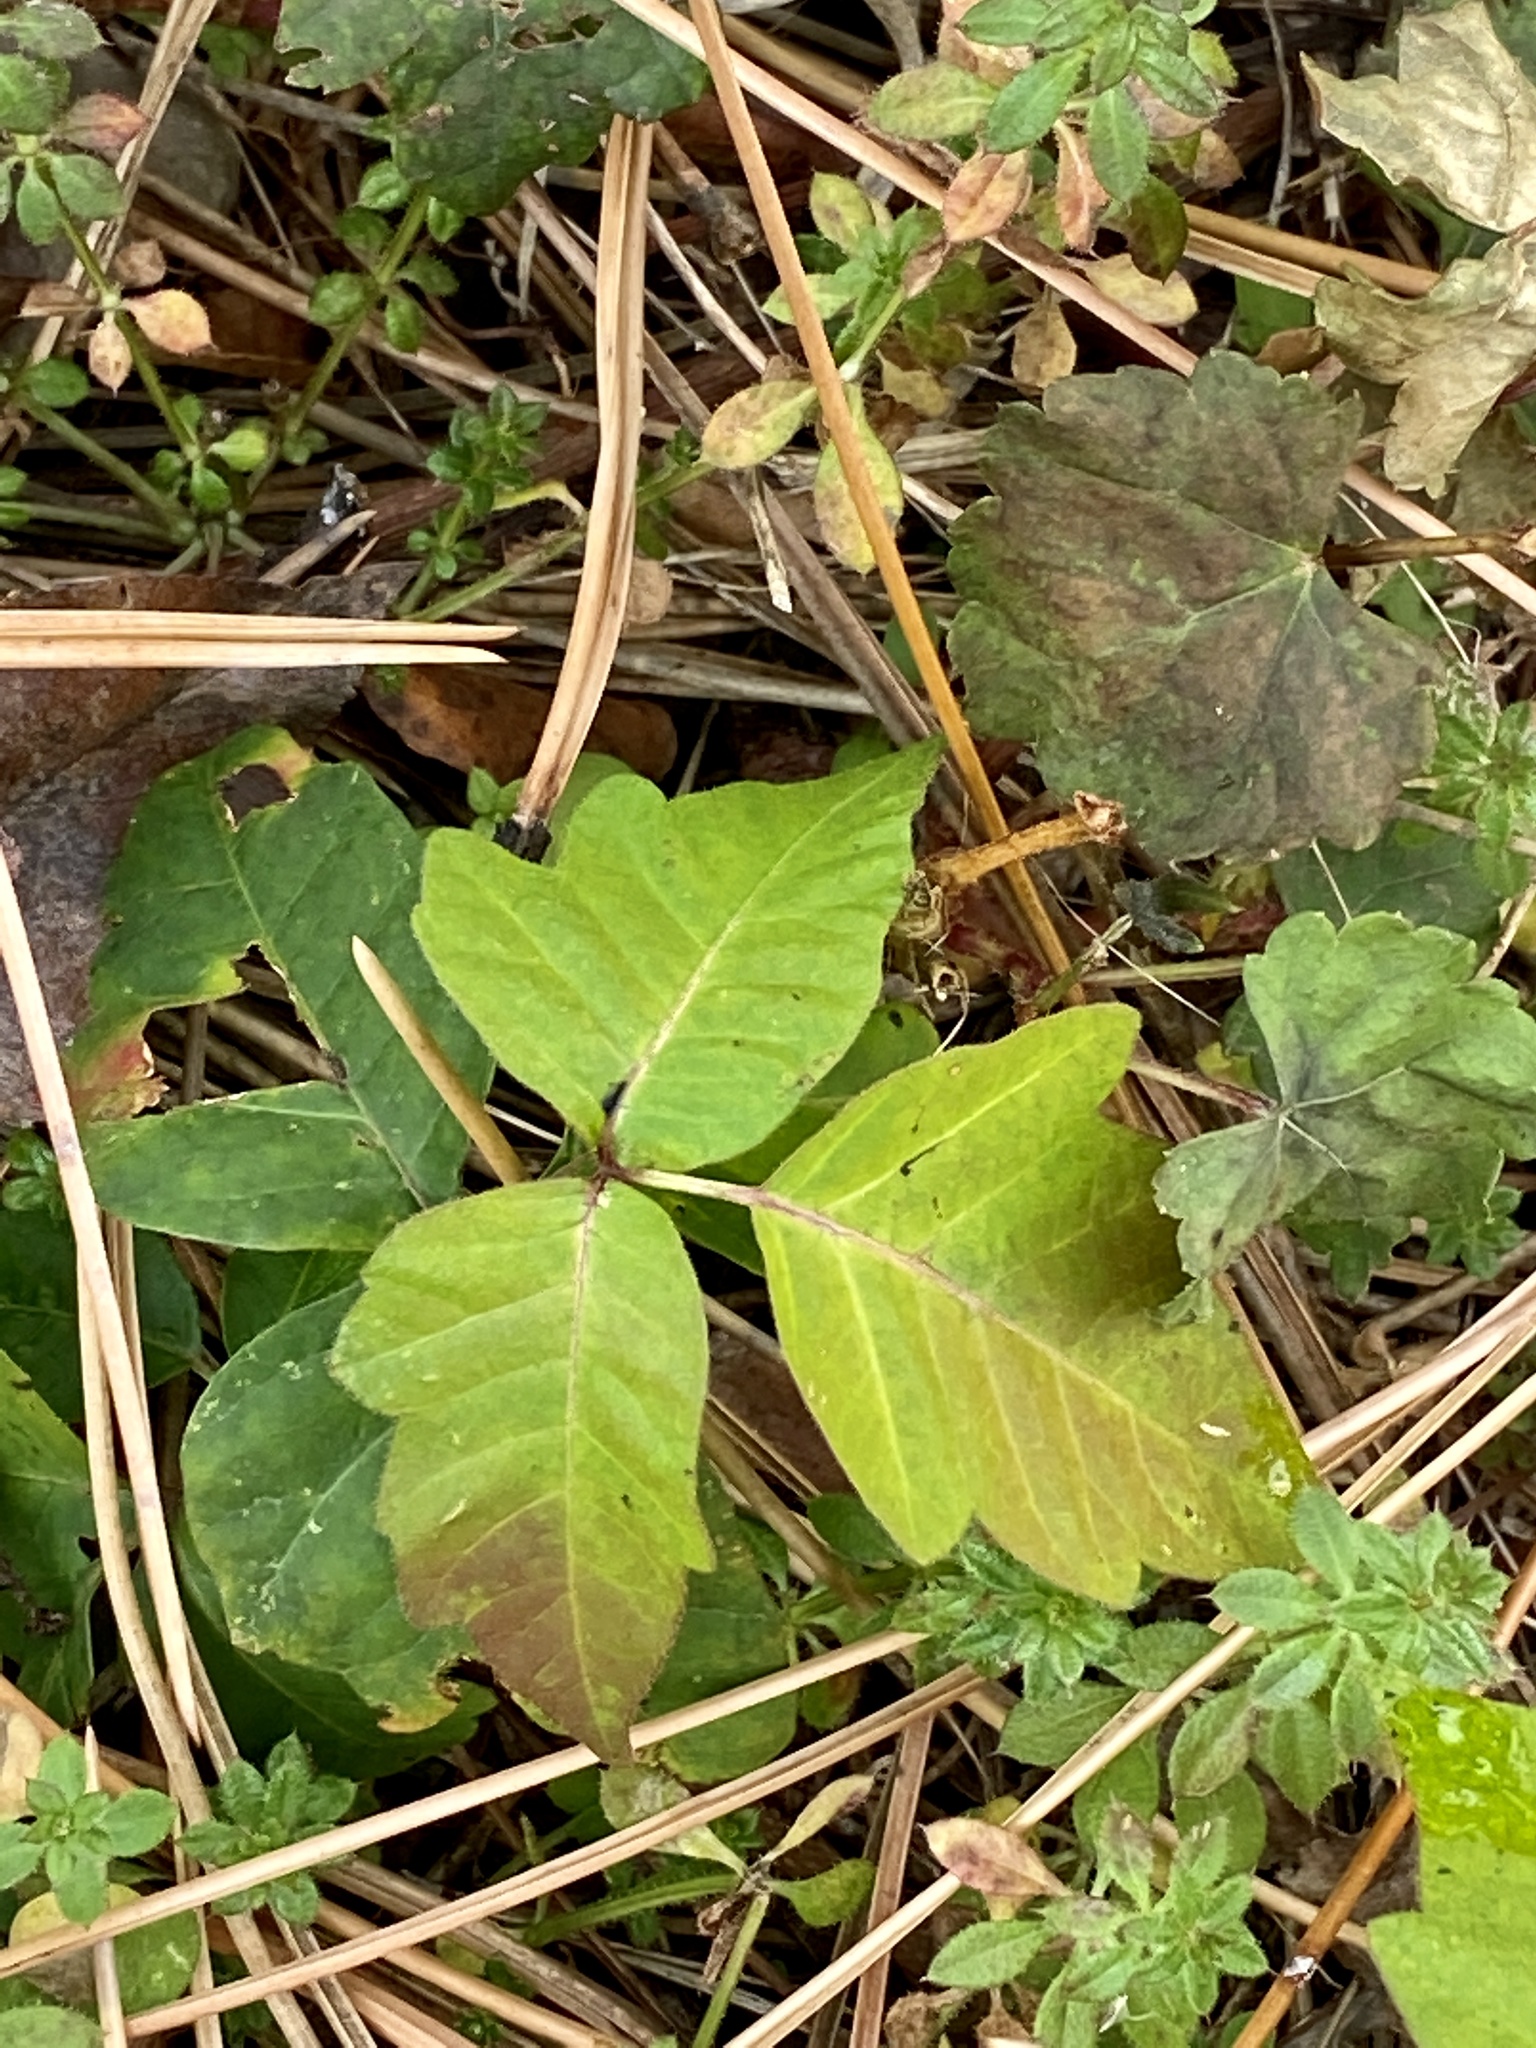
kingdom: Plantae
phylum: Tracheophyta
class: Magnoliopsida
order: Sapindales
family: Anacardiaceae
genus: Toxicodendron
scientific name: Toxicodendron radicans
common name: Poison ivy
